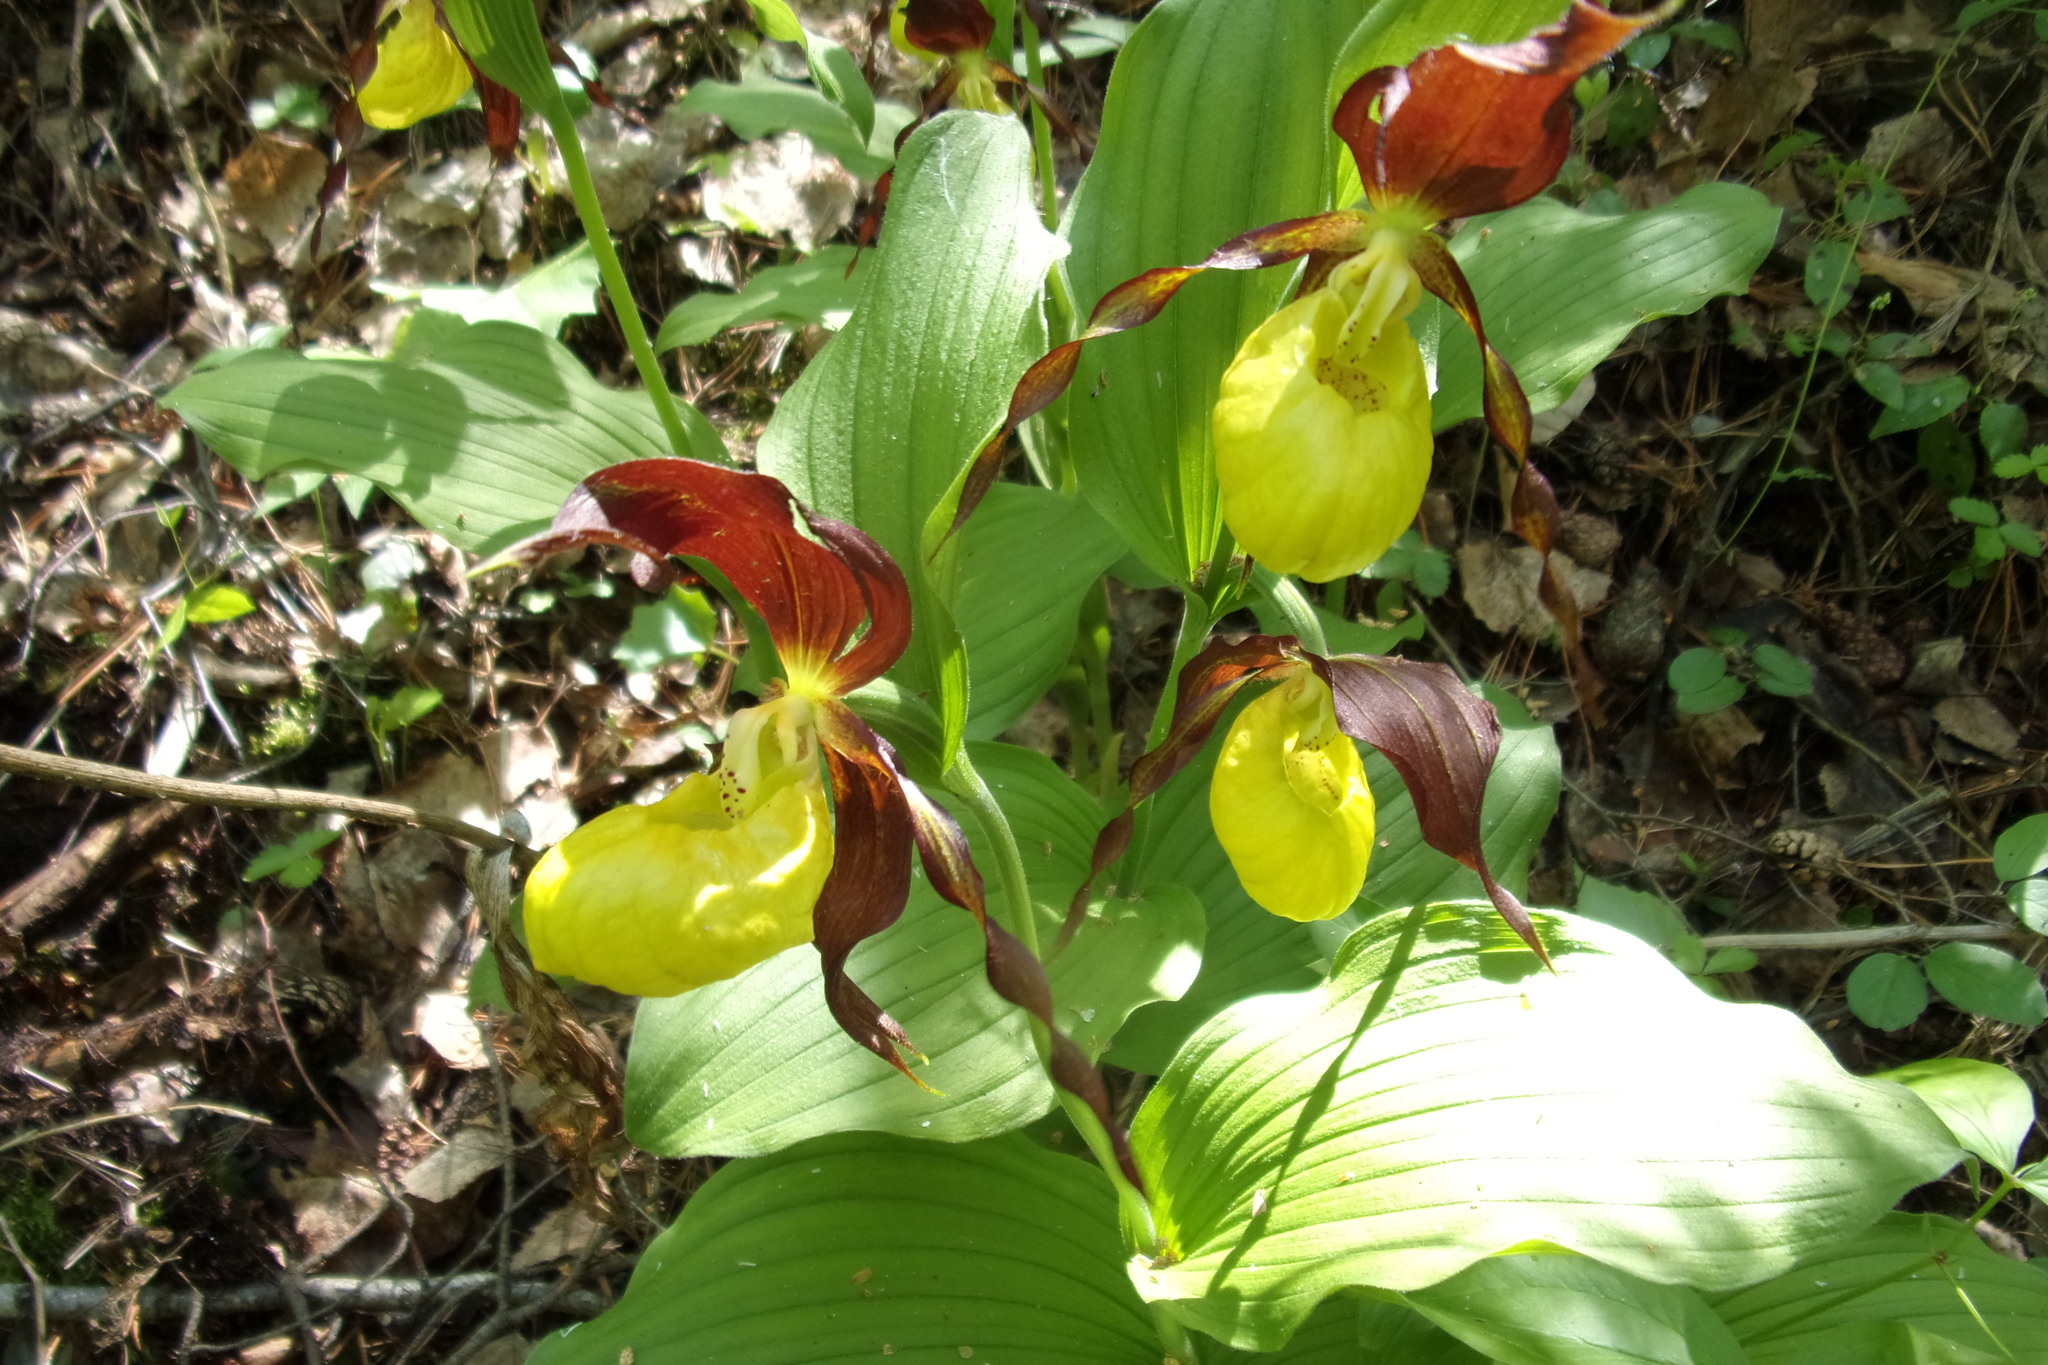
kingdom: Plantae
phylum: Tracheophyta
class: Liliopsida
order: Asparagales
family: Orchidaceae
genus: Cypripedium
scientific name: Cypripedium calceolus
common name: Lady's-slipper
